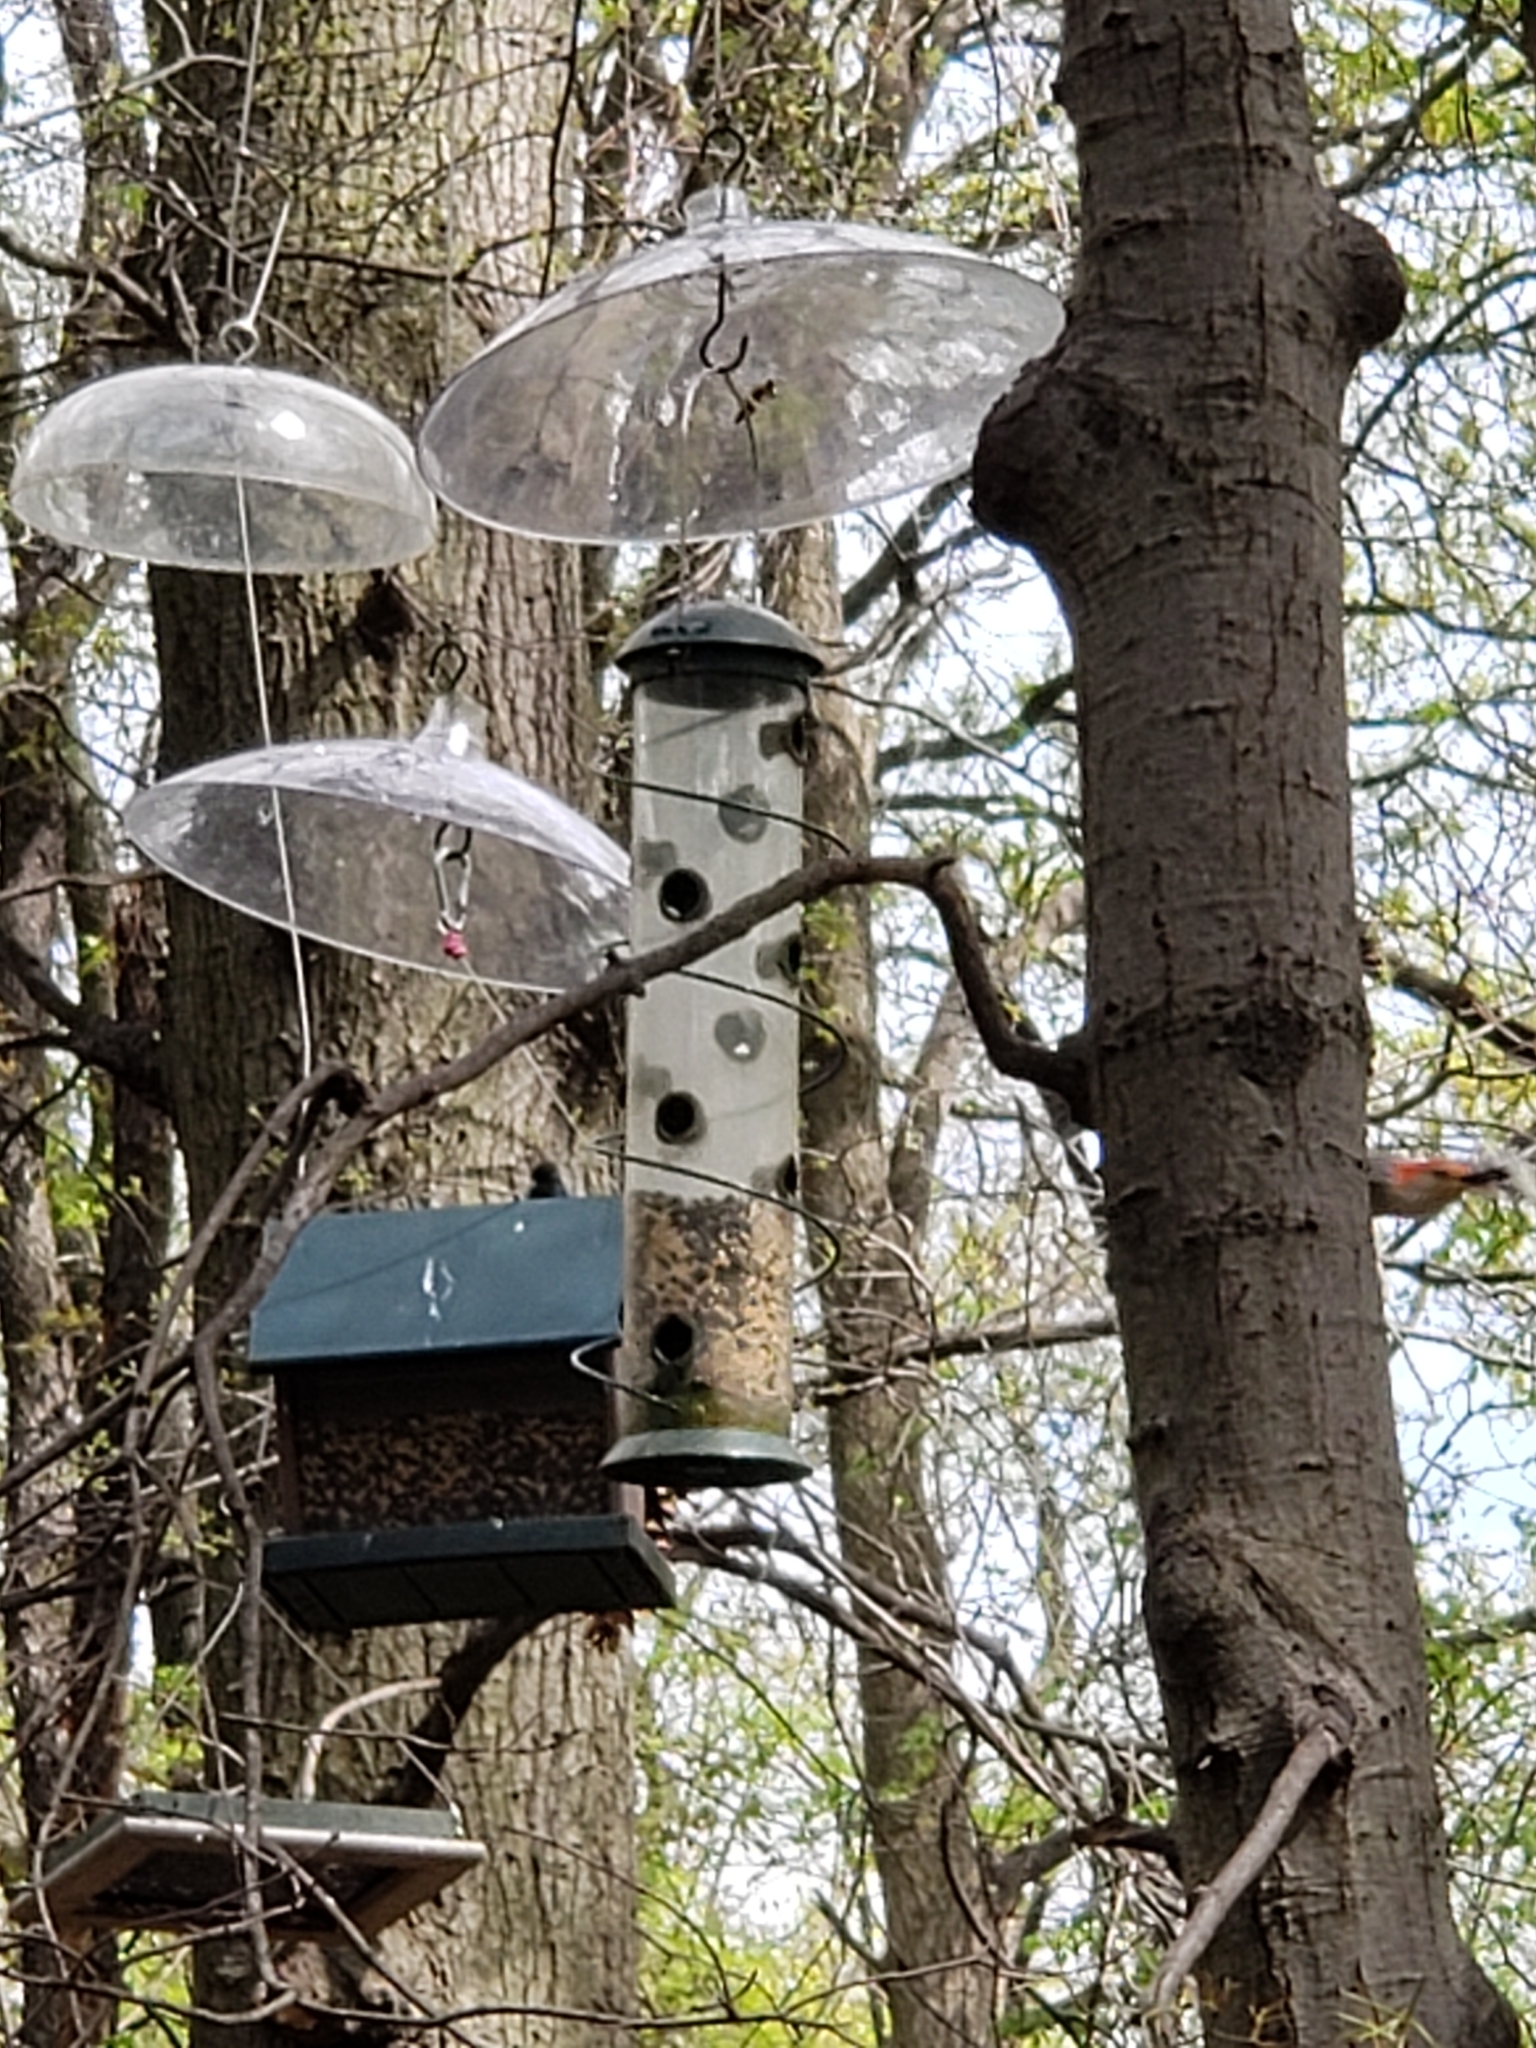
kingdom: Animalia
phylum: Chordata
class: Aves
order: Piciformes
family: Picidae
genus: Melanerpes
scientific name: Melanerpes carolinus
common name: Red-bellied woodpecker
